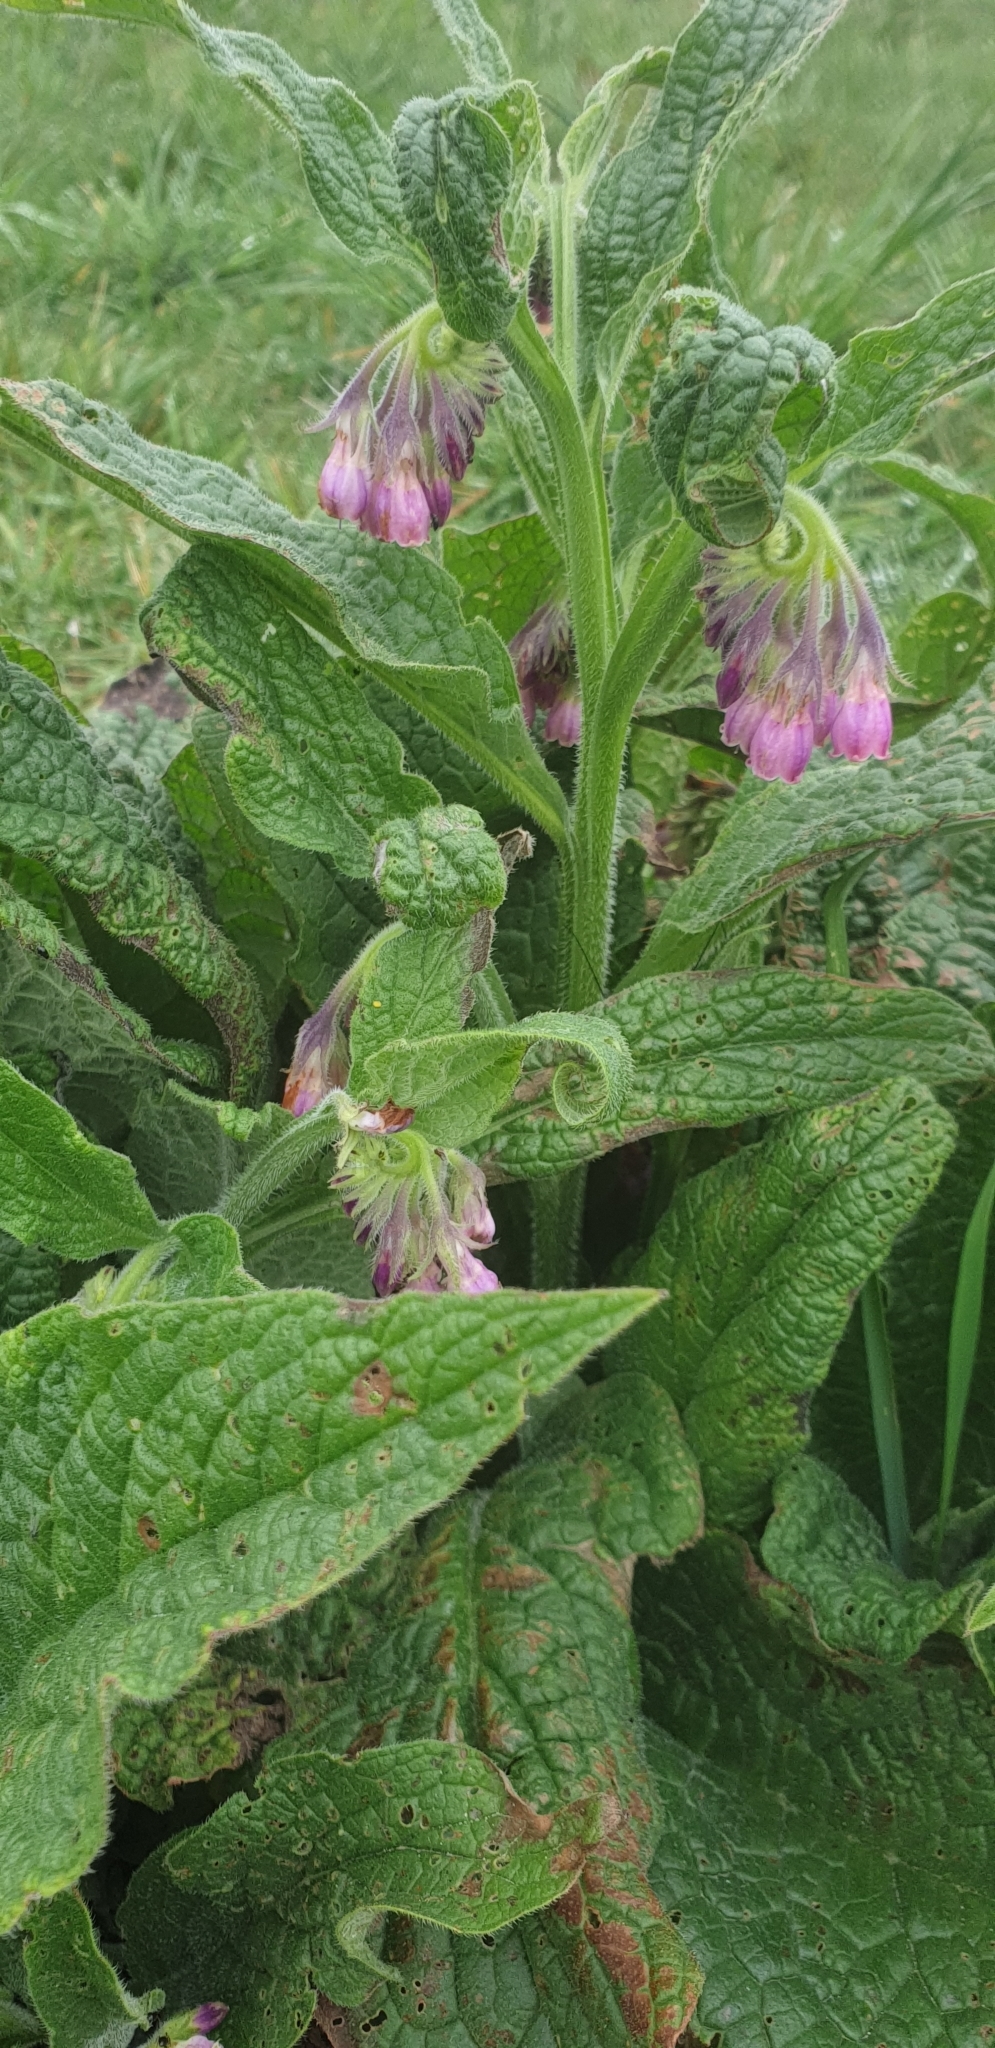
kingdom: Plantae
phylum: Tracheophyta
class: Magnoliopsida
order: Boraginales
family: Boraginaceae
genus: Symphytum
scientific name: Symphytum officinale
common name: Common comfrey
